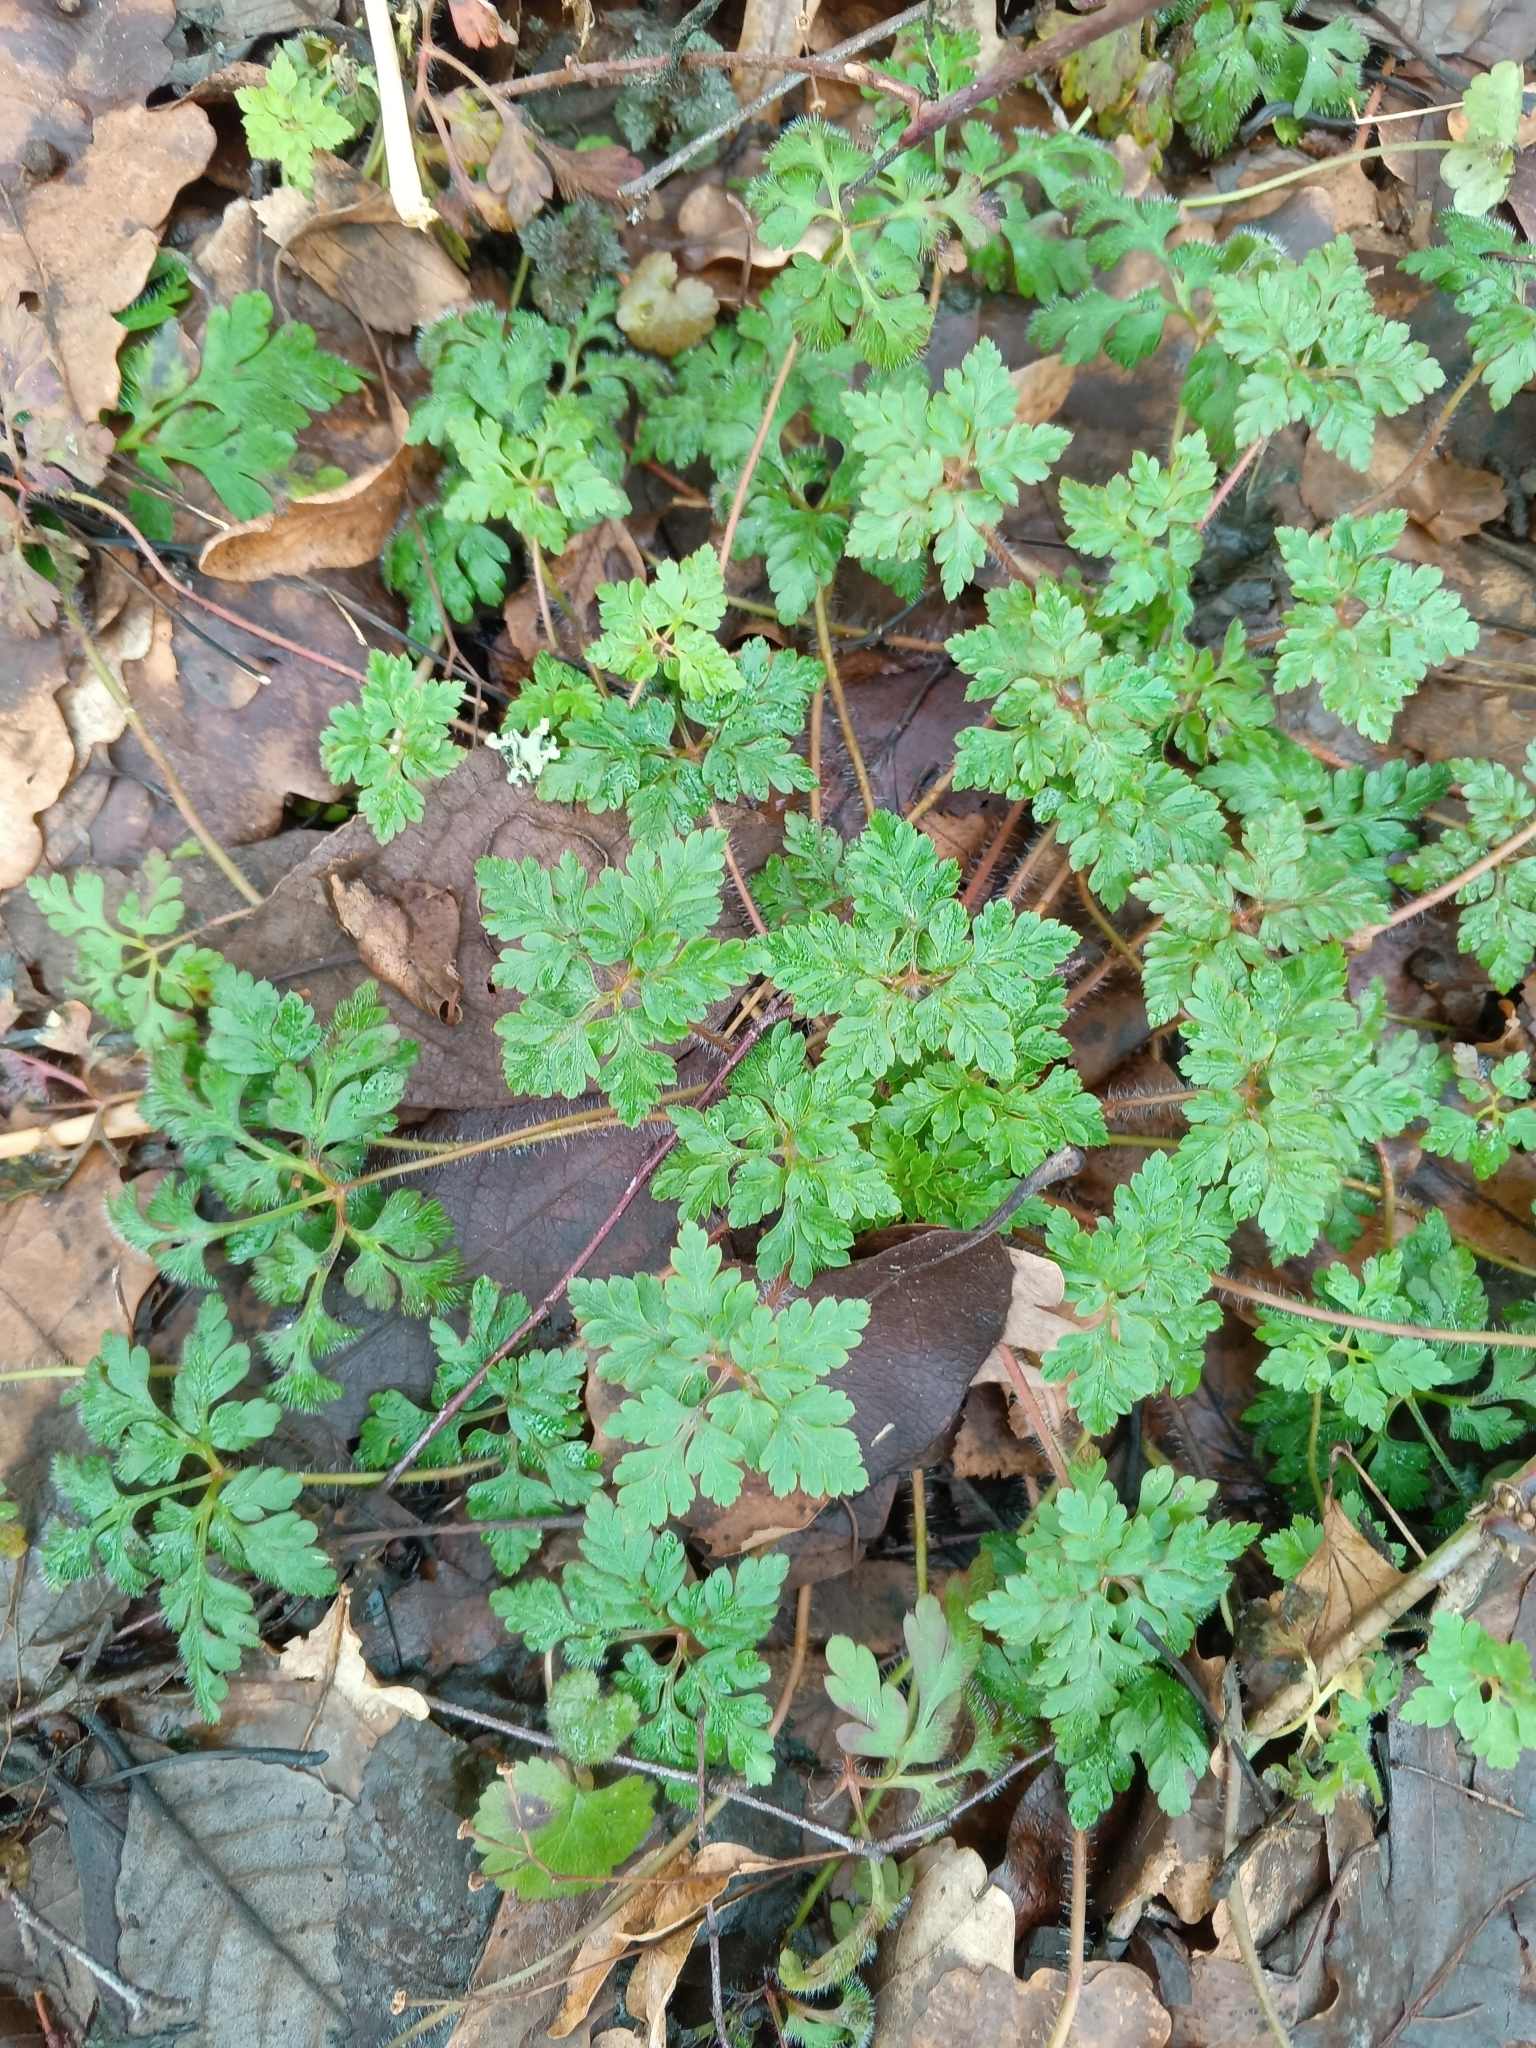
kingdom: Plantae
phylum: Tracheophyta
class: Magnoliopsida
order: Geraniales
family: Geraniaceae
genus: Geranium
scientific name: Geranium robertianum
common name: Herb-robert
